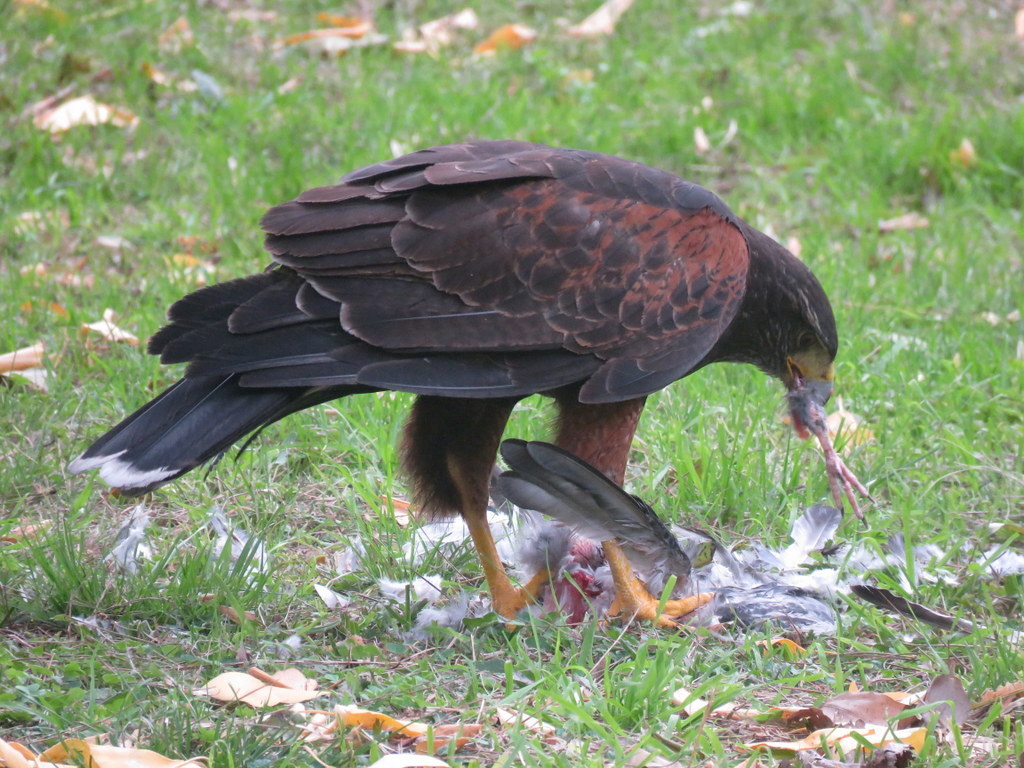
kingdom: Animalia
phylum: Chordata
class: Aves
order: Accipitriformes
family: Accipitridae
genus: Parabuteo
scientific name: Parabuteo unicinctus
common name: Harris's hawk
